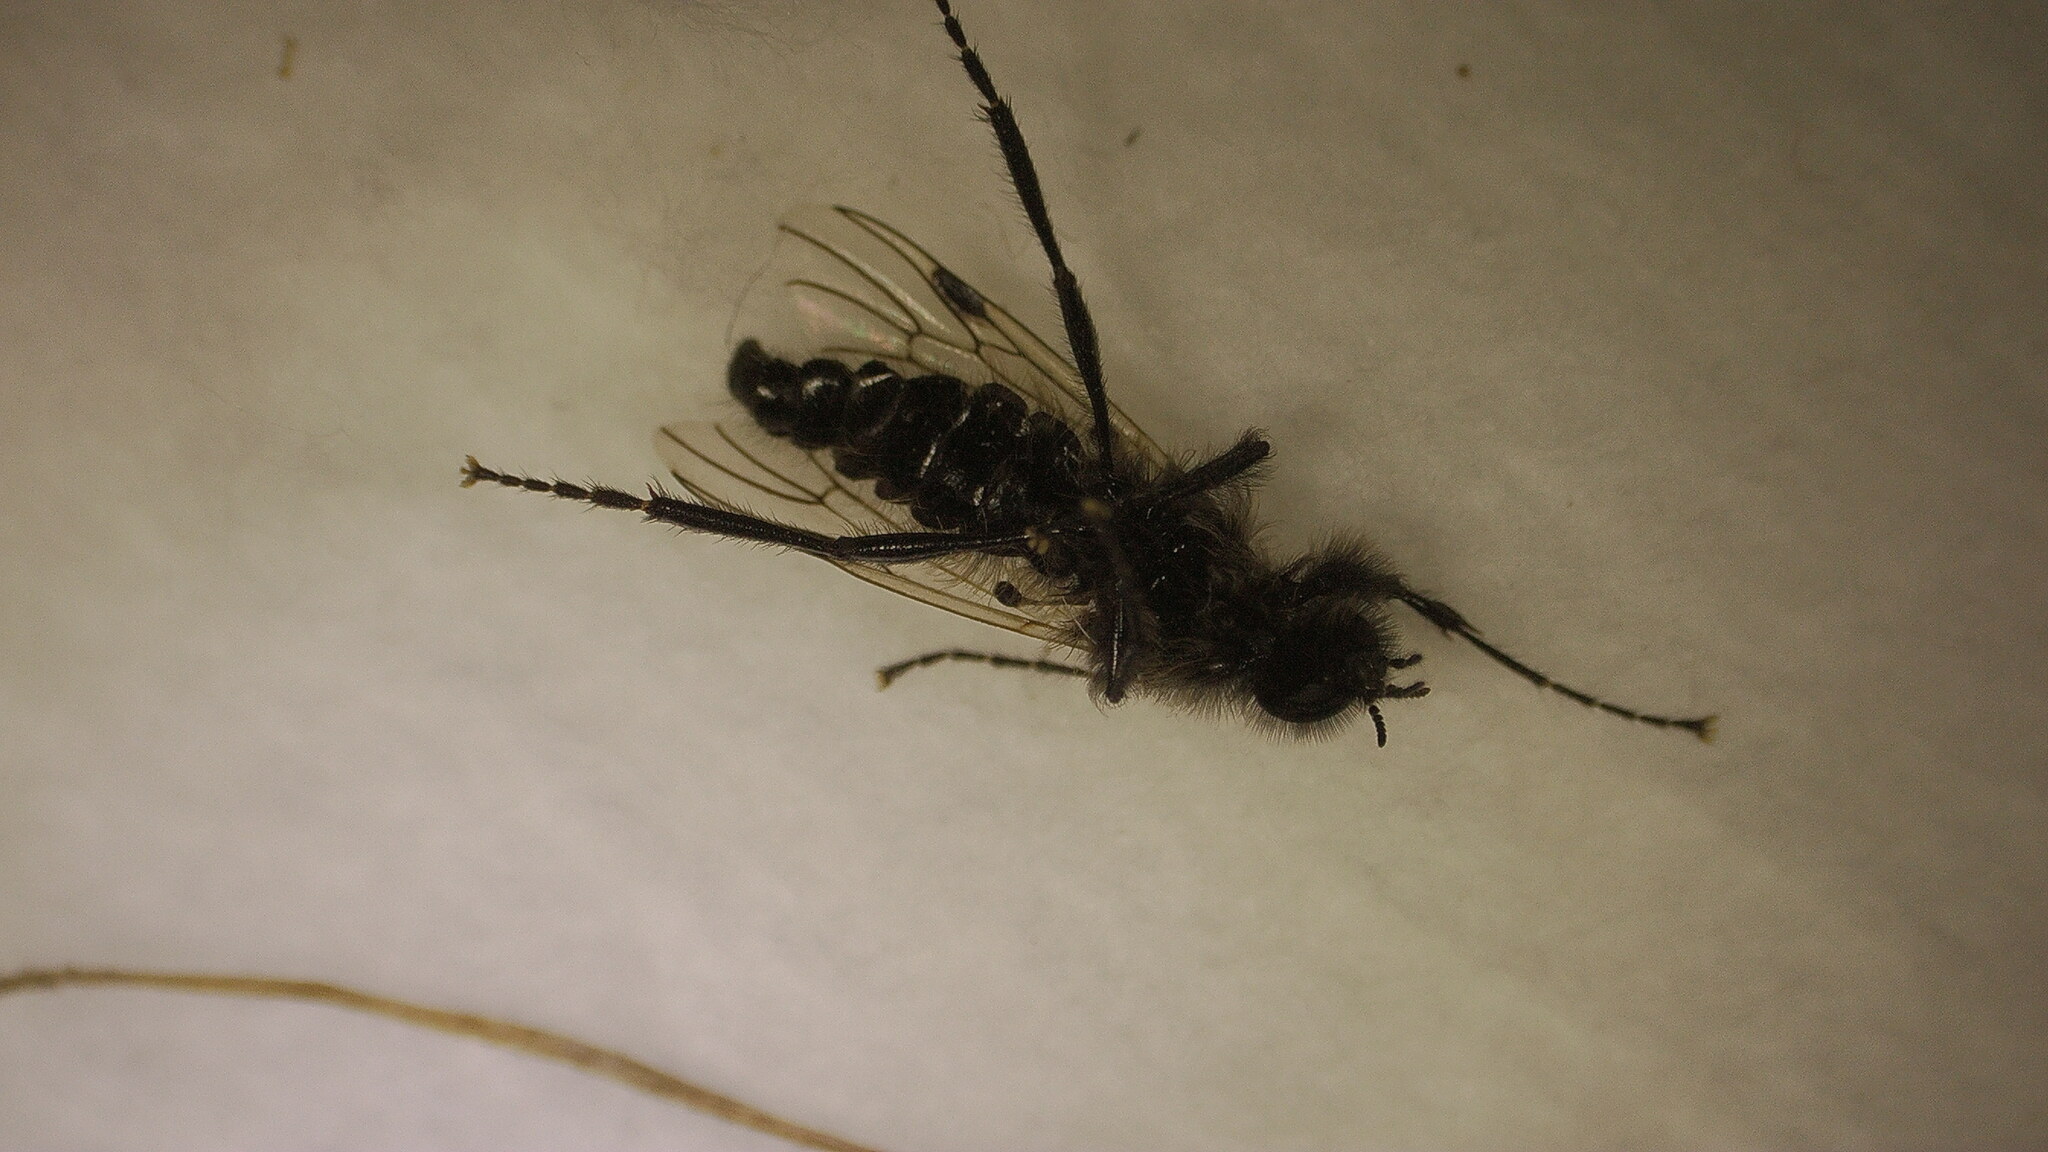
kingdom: Animalia
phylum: Arthropoda
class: Insecta
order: Diptera
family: Bibionidae
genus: Bibio
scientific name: Bibio albipennis
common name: White-winged march fly
